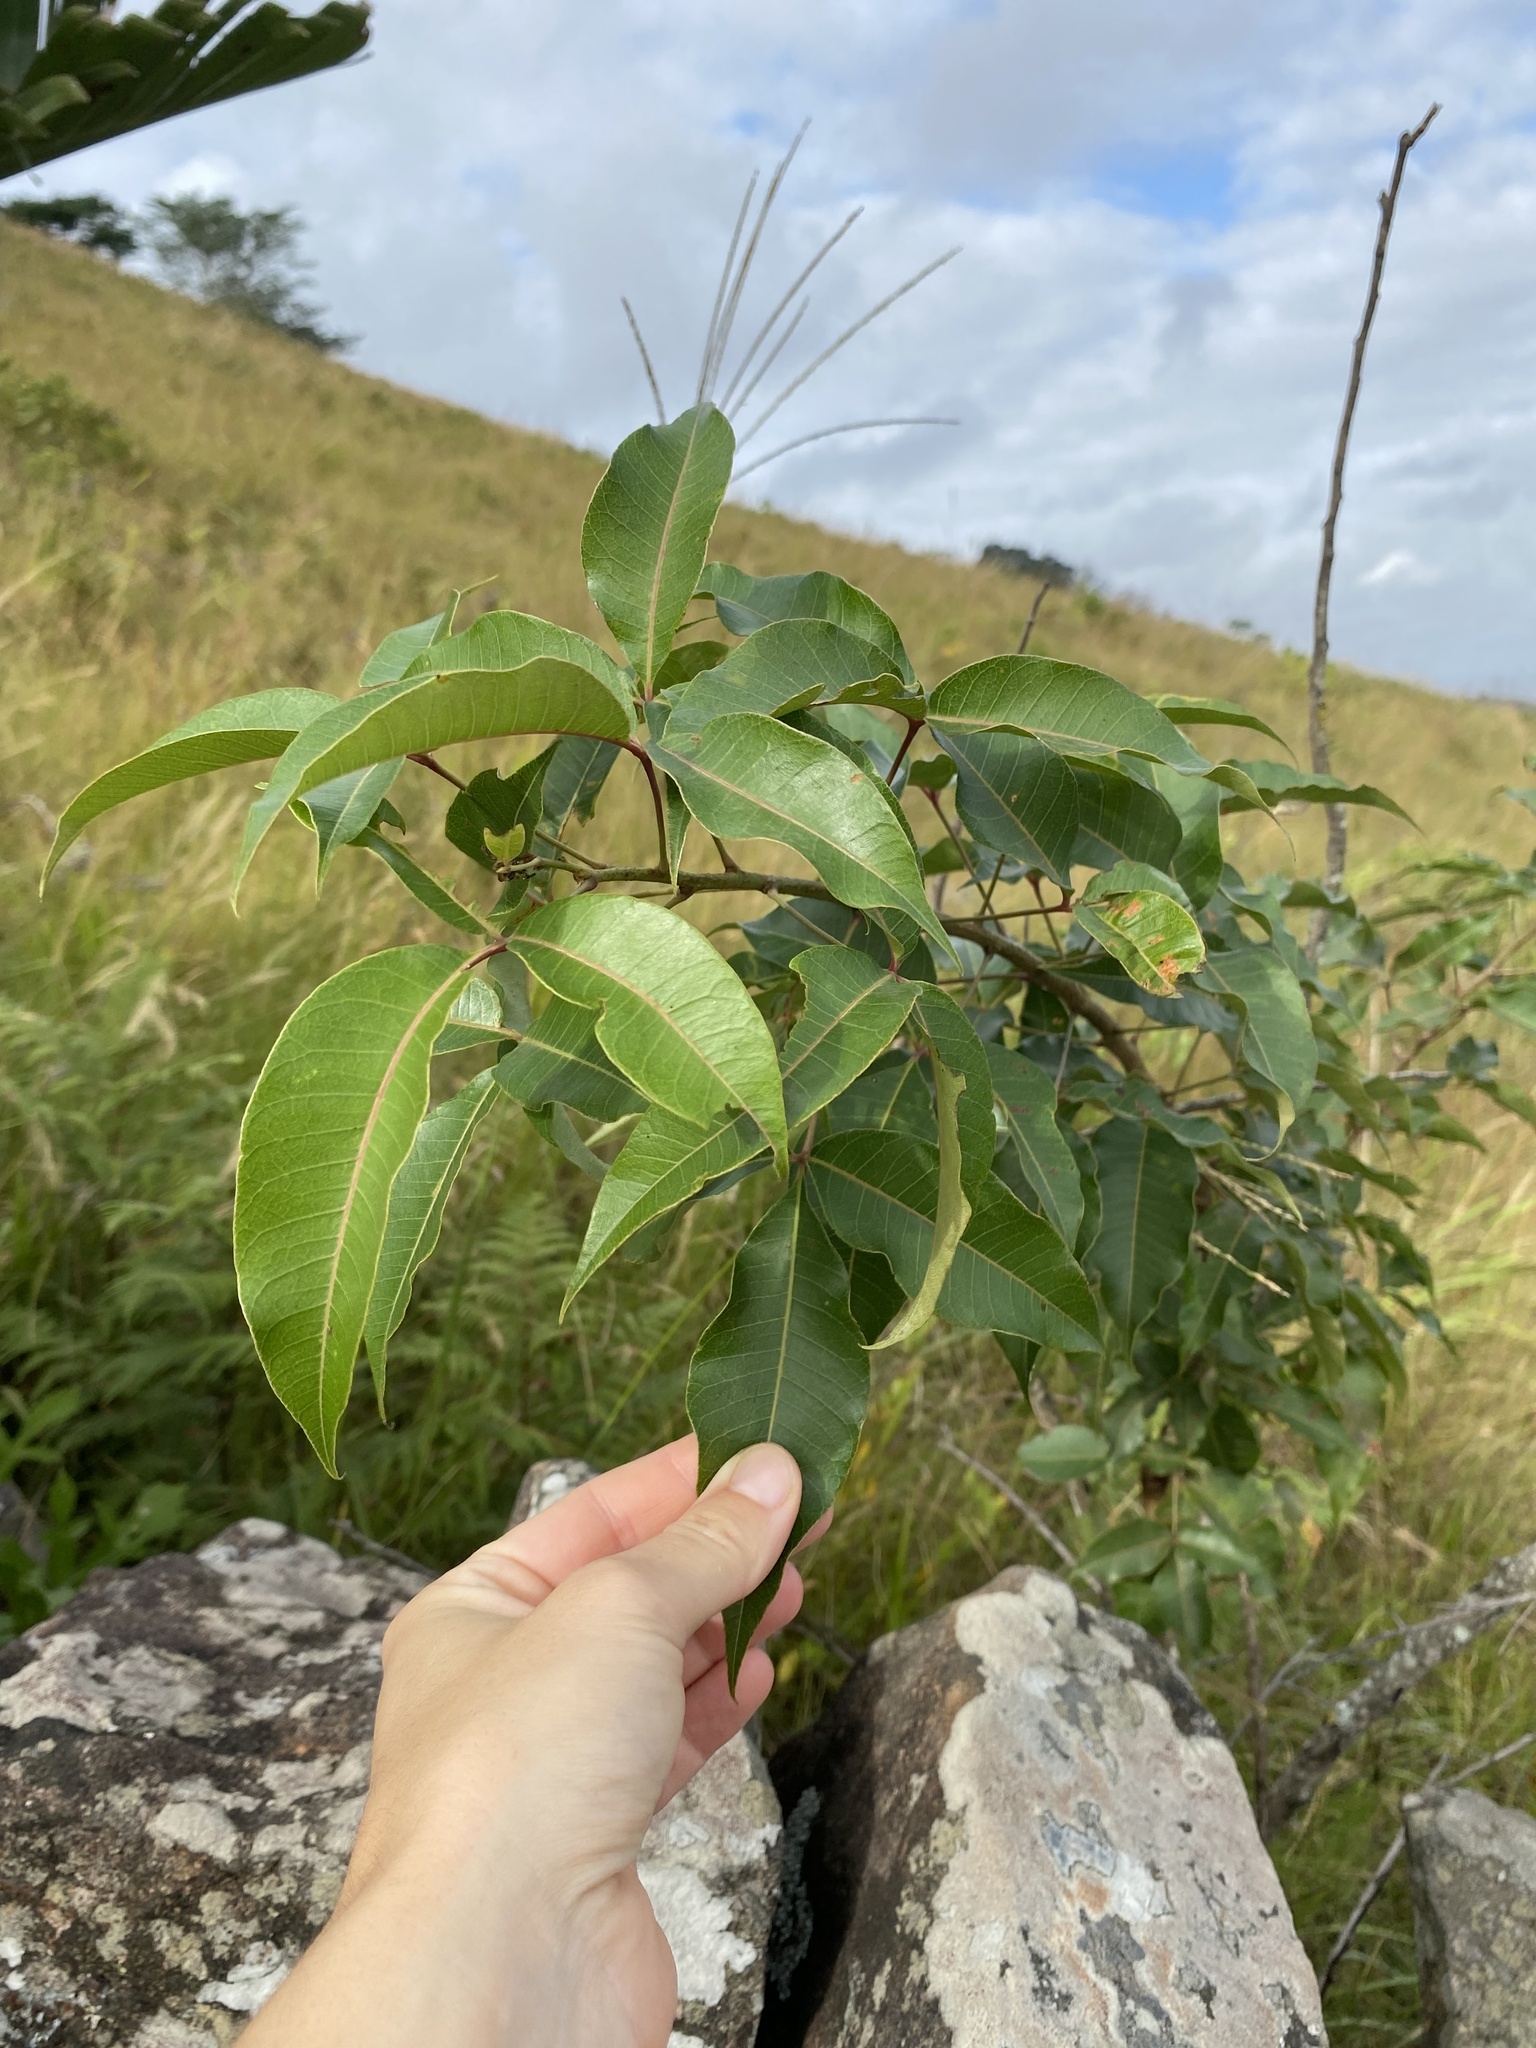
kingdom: Plantae
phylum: Tracheophyta
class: Magnoliopsida
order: Sapindales
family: Anacardiaceae
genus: Searsia
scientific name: Searsia chirindensis
